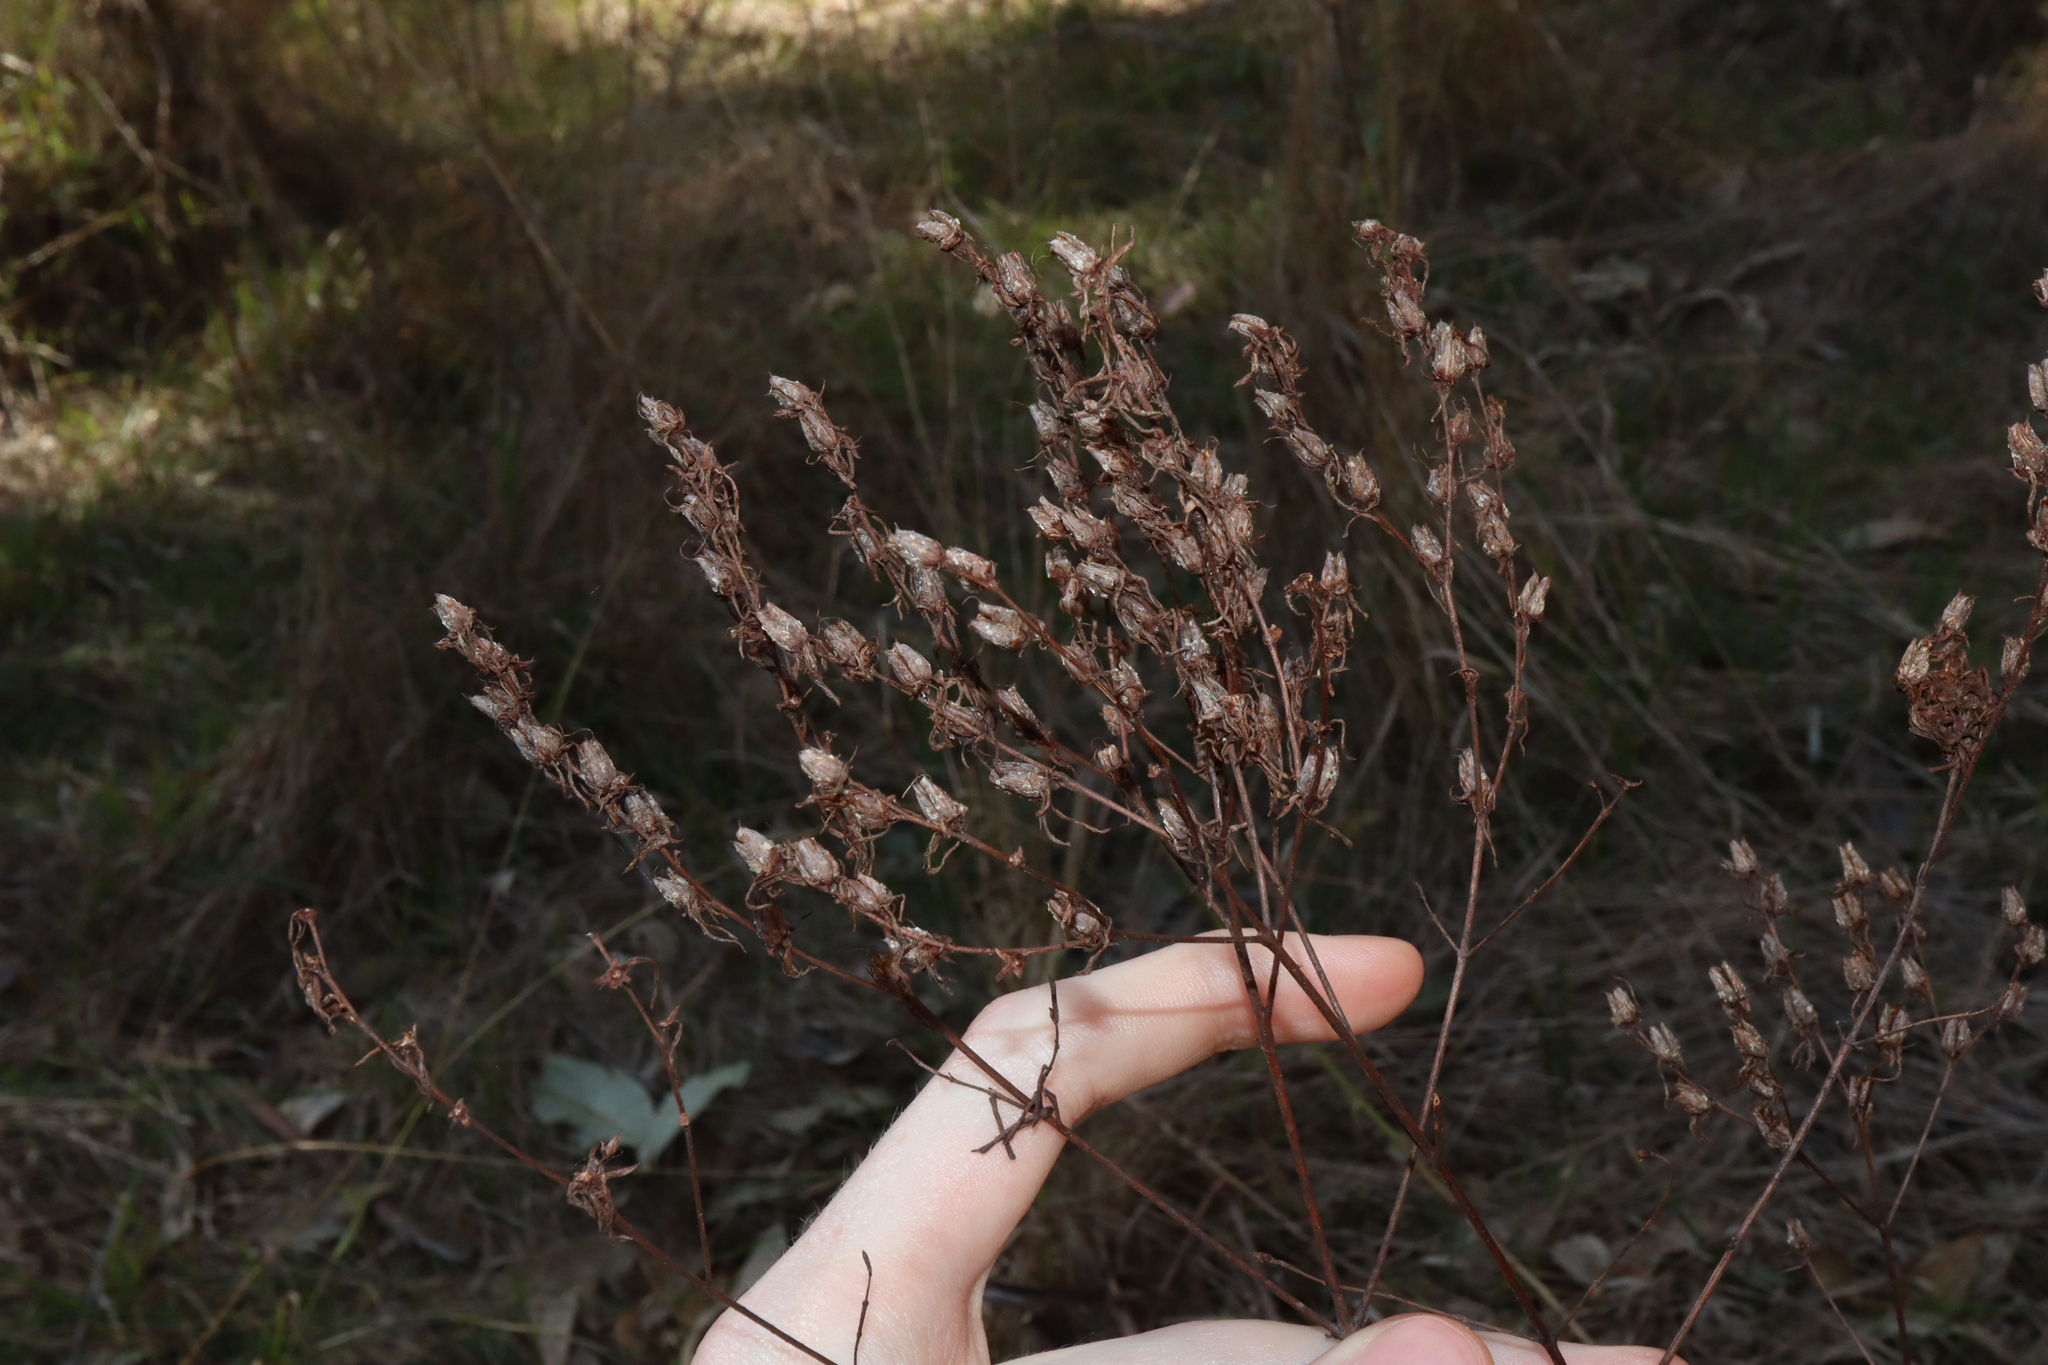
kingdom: Plantae
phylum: Tracheophyta
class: Magnoliopsida
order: Malpighiales
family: Hypericaceae
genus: Hypericum
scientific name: Hypericum perforatum
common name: Common st. johnswort
